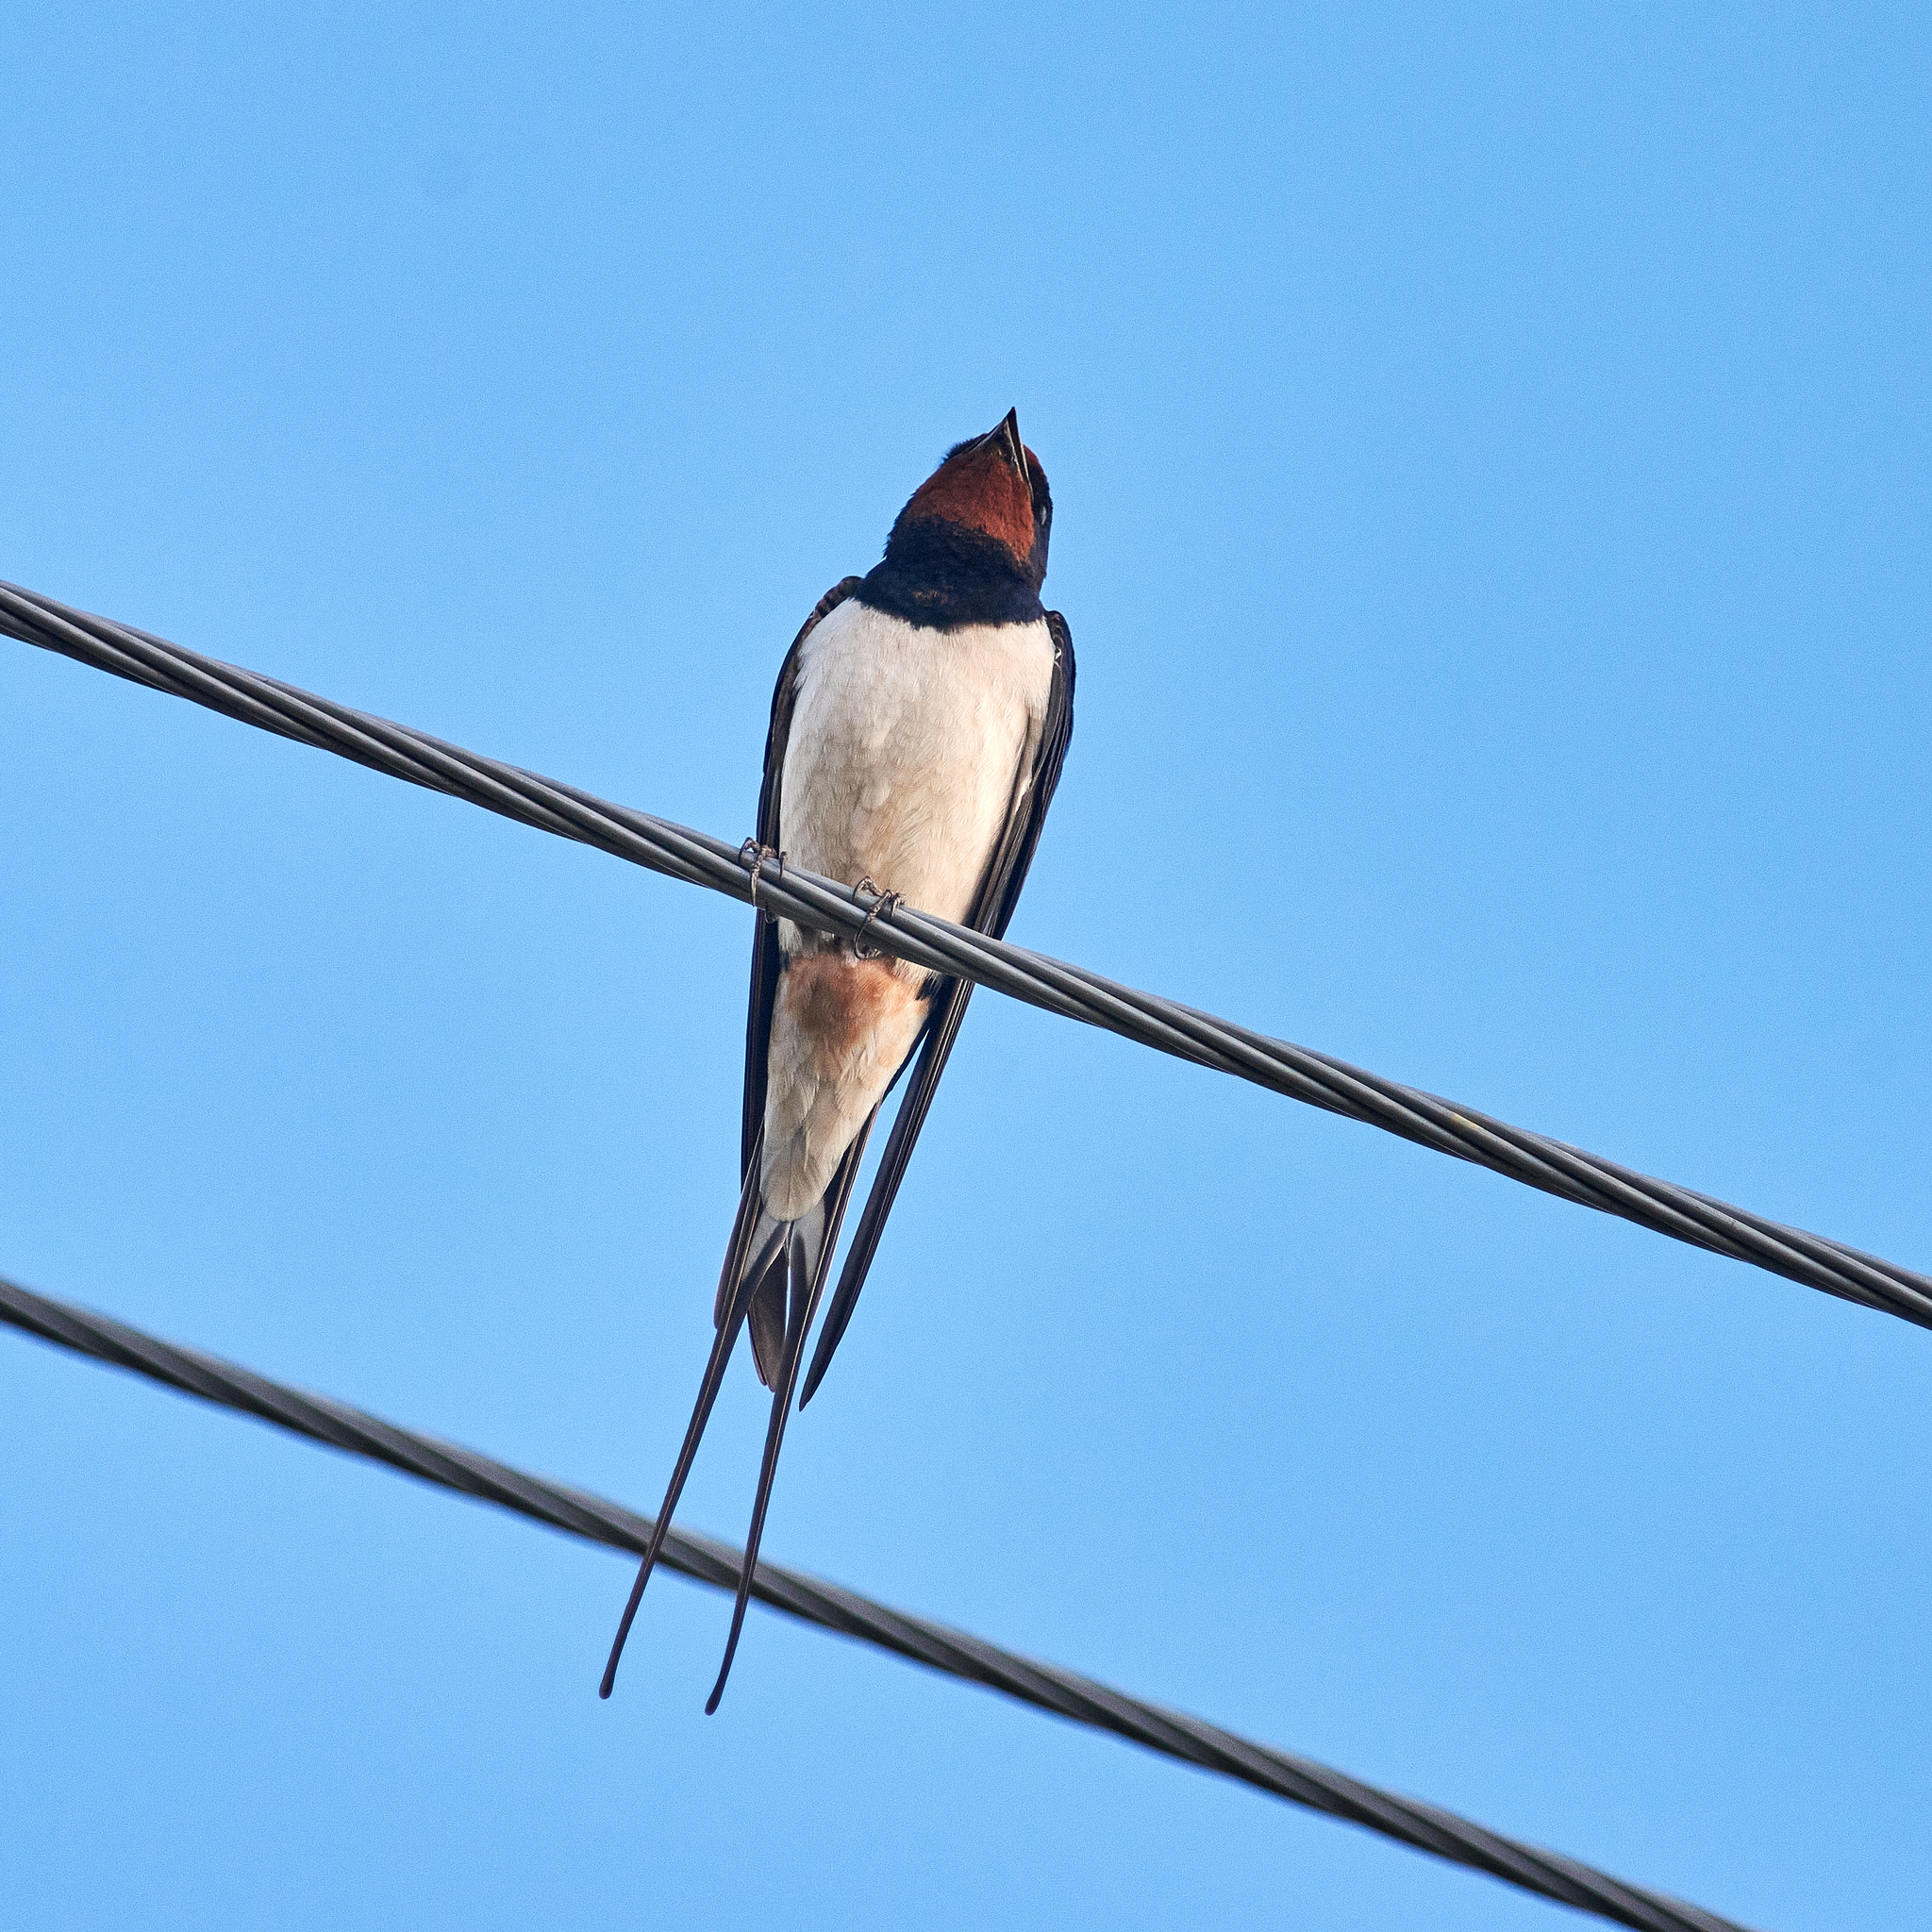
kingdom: Animalia
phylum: Chordata
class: Aves
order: Passeriformes
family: Hirundinidae
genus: Hirundo
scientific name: Hirundo rustica
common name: Barn swallow
